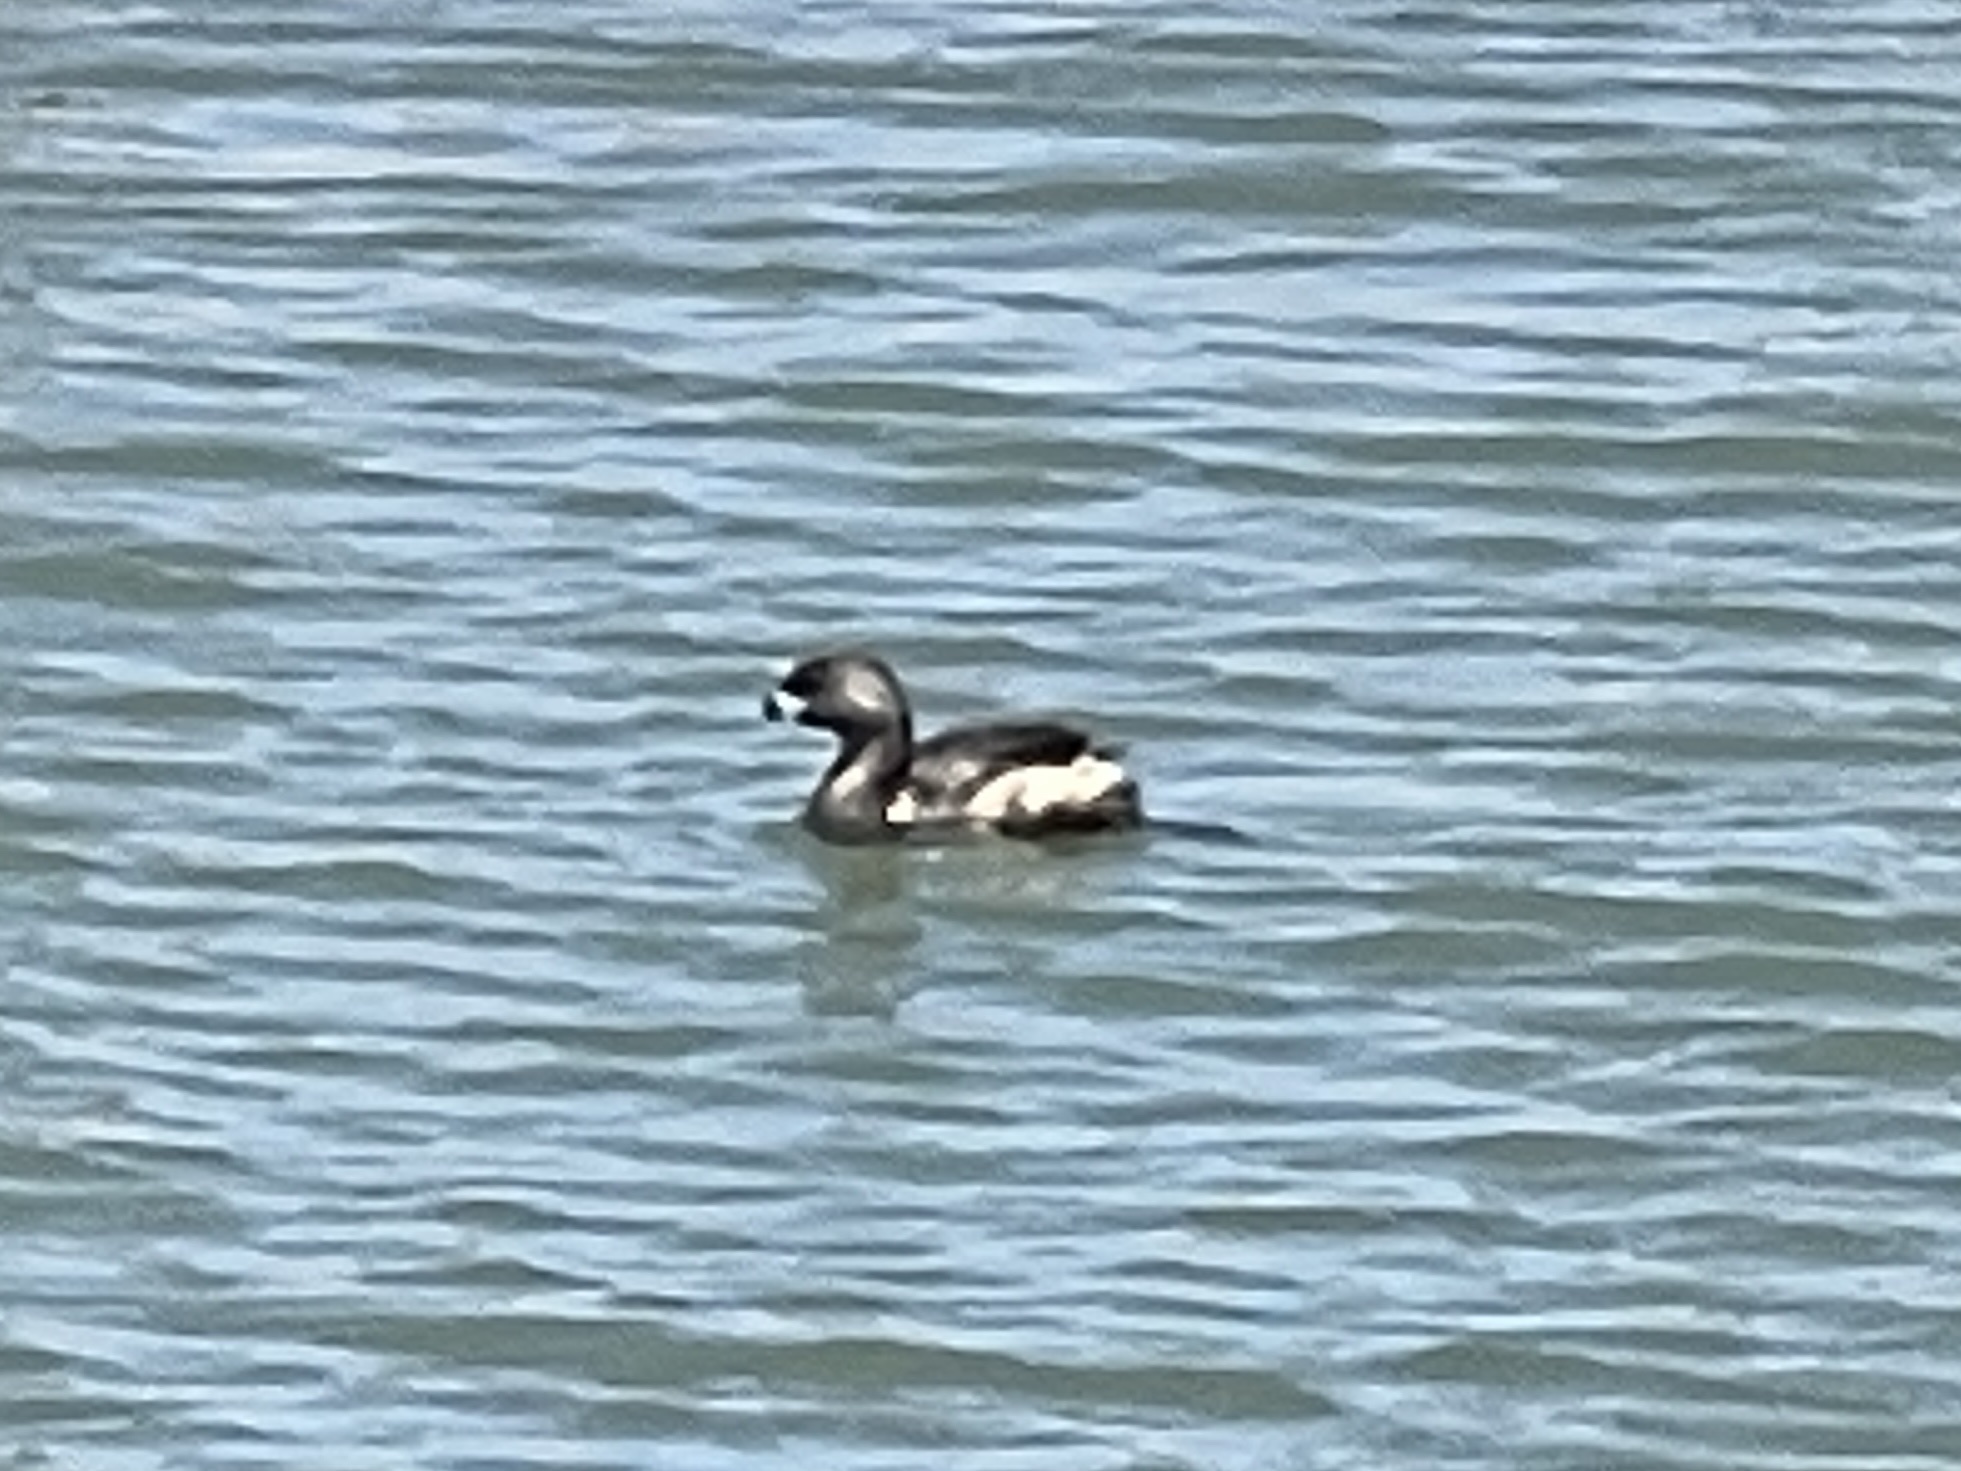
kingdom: Animalia
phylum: Chordata
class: Aves
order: Podicipediformes
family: Podicipedidae
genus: Podilymbus
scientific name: Podilymbus podiceps
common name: Pied-billed grebe
